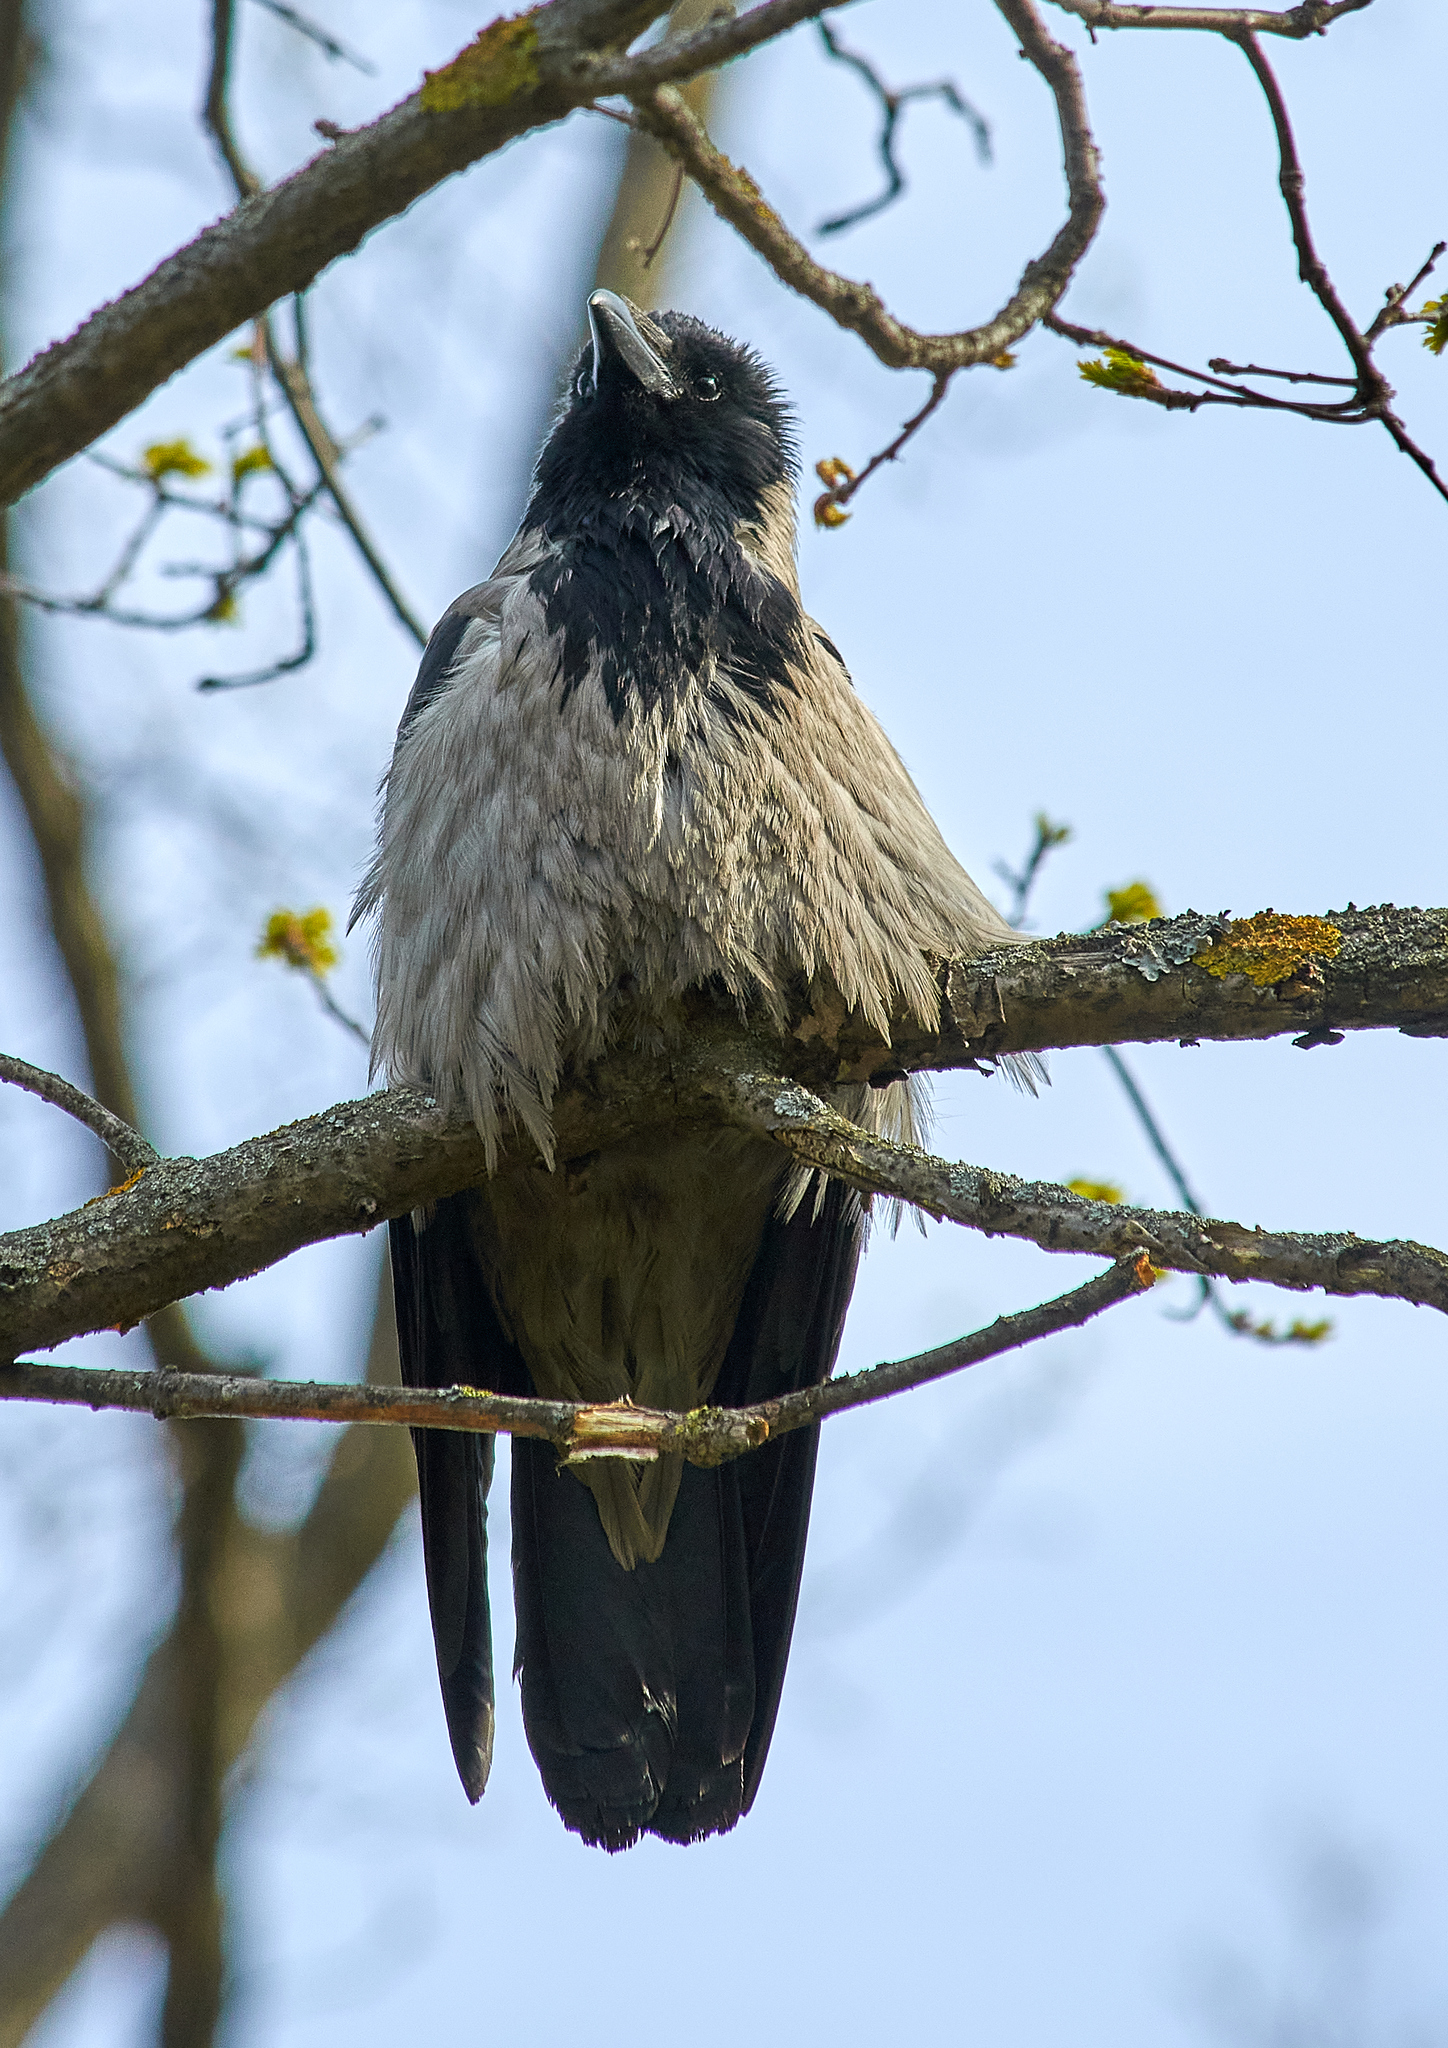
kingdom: Animalia
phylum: Chordata
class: Aves
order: Passeriformes
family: Corvidae
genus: Corvus
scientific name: Corvus cornix
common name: Hooded crow
